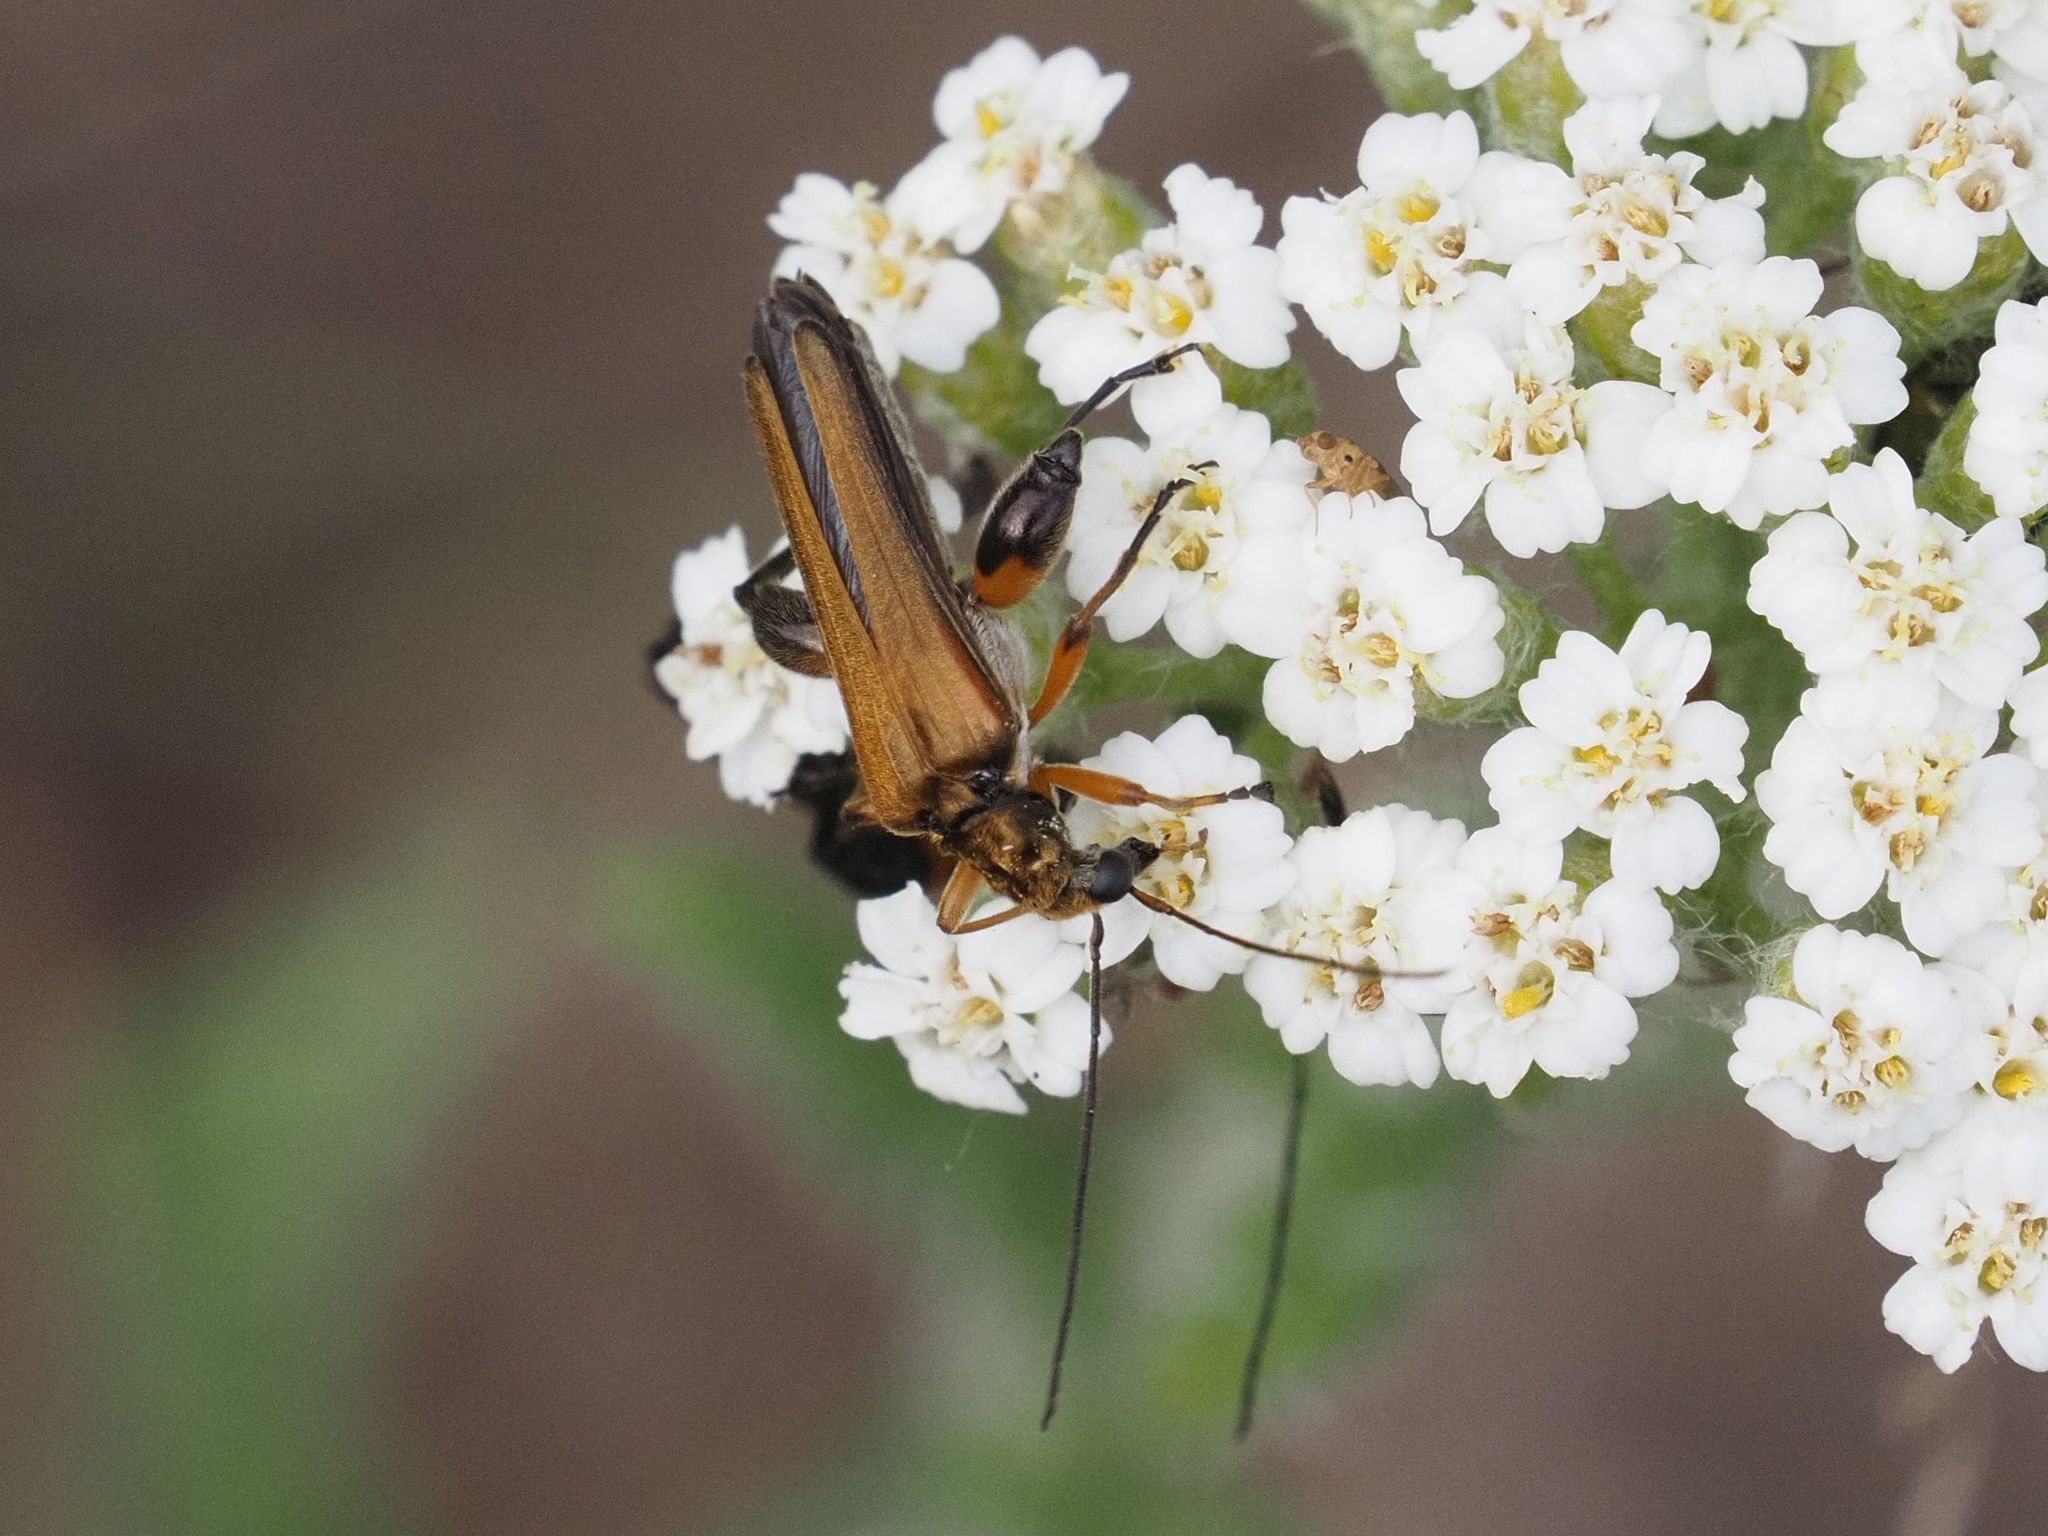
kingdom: Animalia
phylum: Arthropoda
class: Insecta
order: Coleoptera
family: Oedemeridae
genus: Oedemera
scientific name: Oedemera podagrariae
